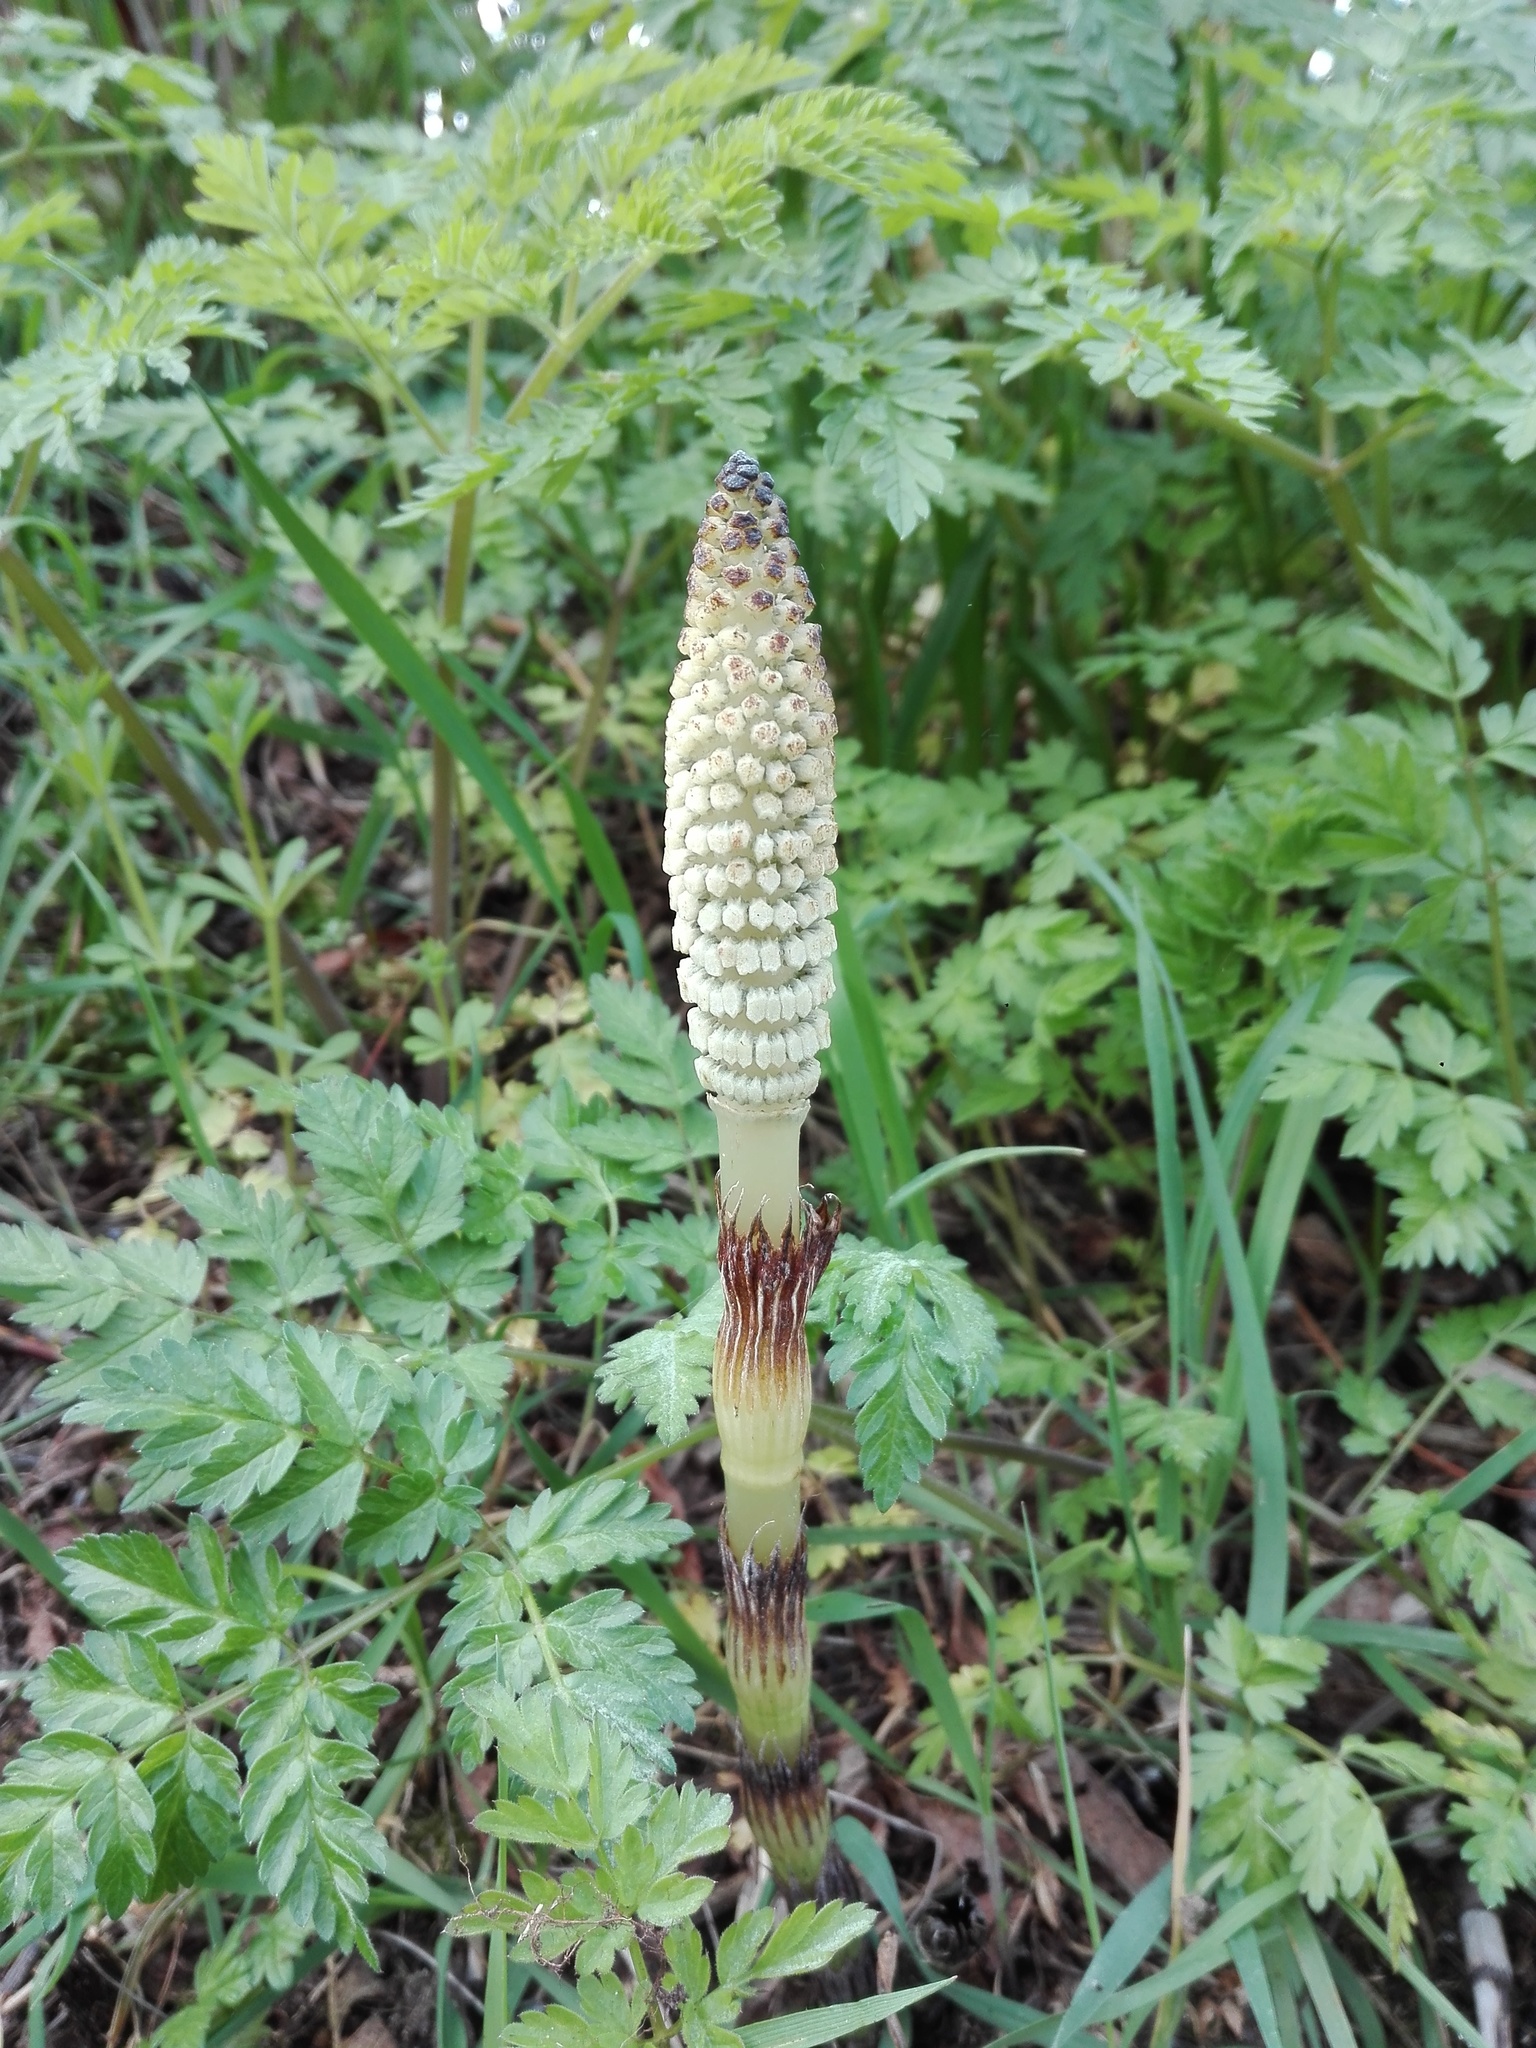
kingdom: Plantae
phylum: Tracheophyta
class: Polypodiopsida
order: Equisetales
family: Equisetaceae
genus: Equisetum
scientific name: Equisetum telmateia
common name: Great horsetail
